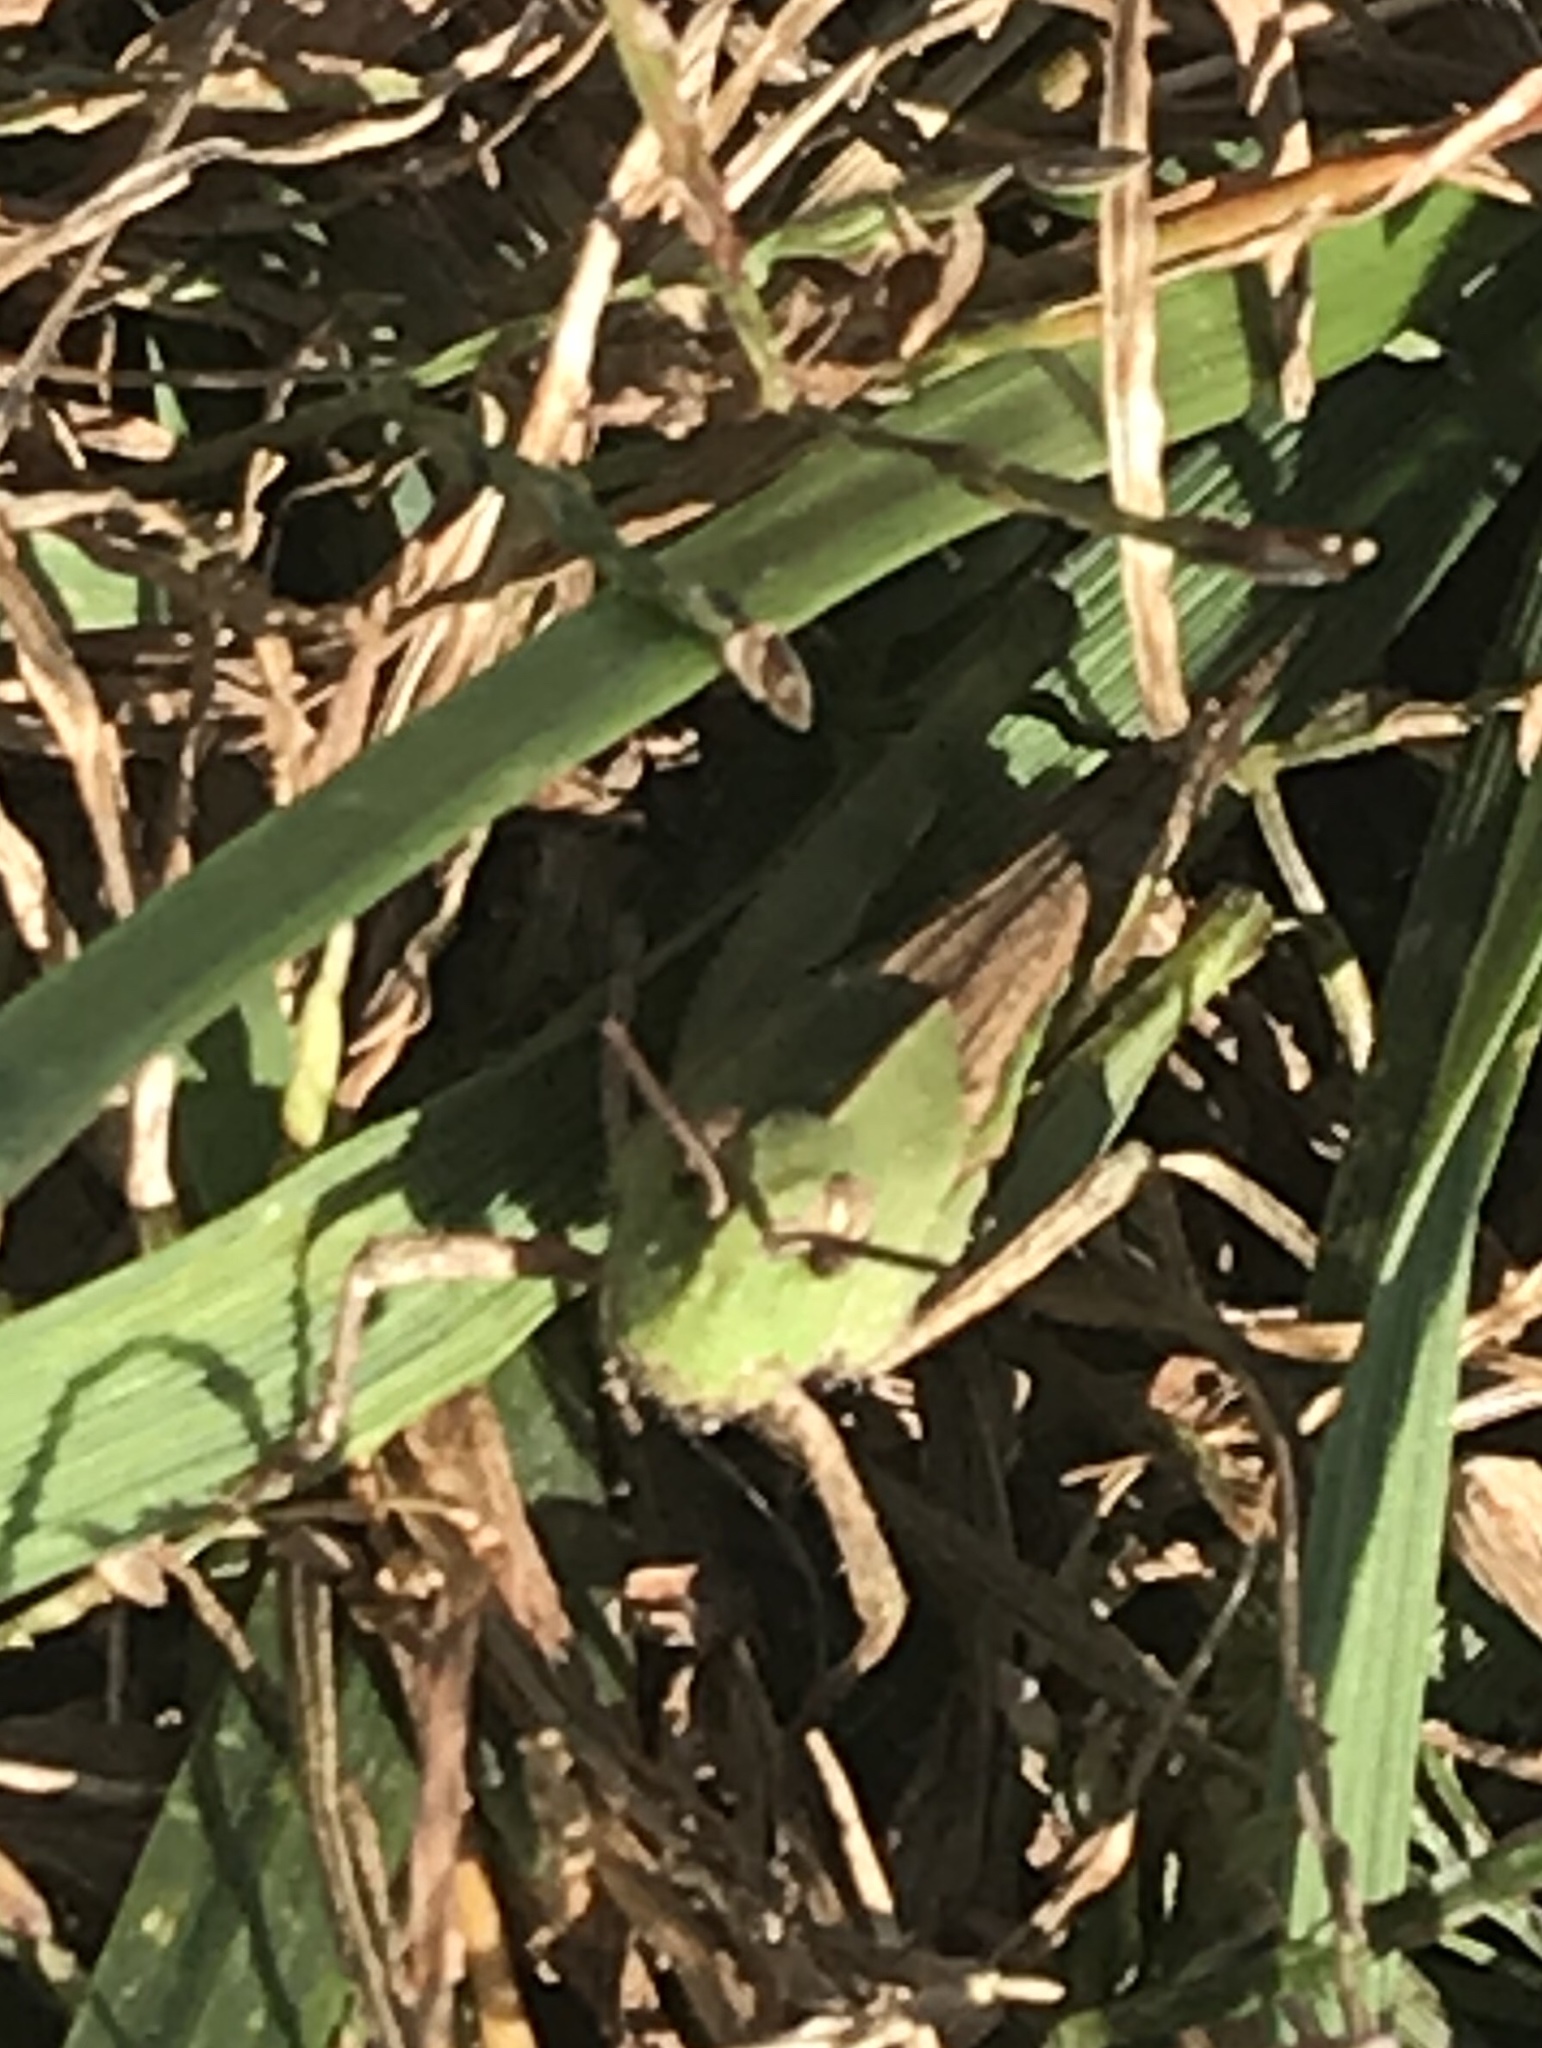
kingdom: Animalia
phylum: Arthropoda
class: Insecta
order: Orthoptera
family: Acrididae
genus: Chortophaga
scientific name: Chortophaga viridifasciata
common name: Green-striped grasshopper
